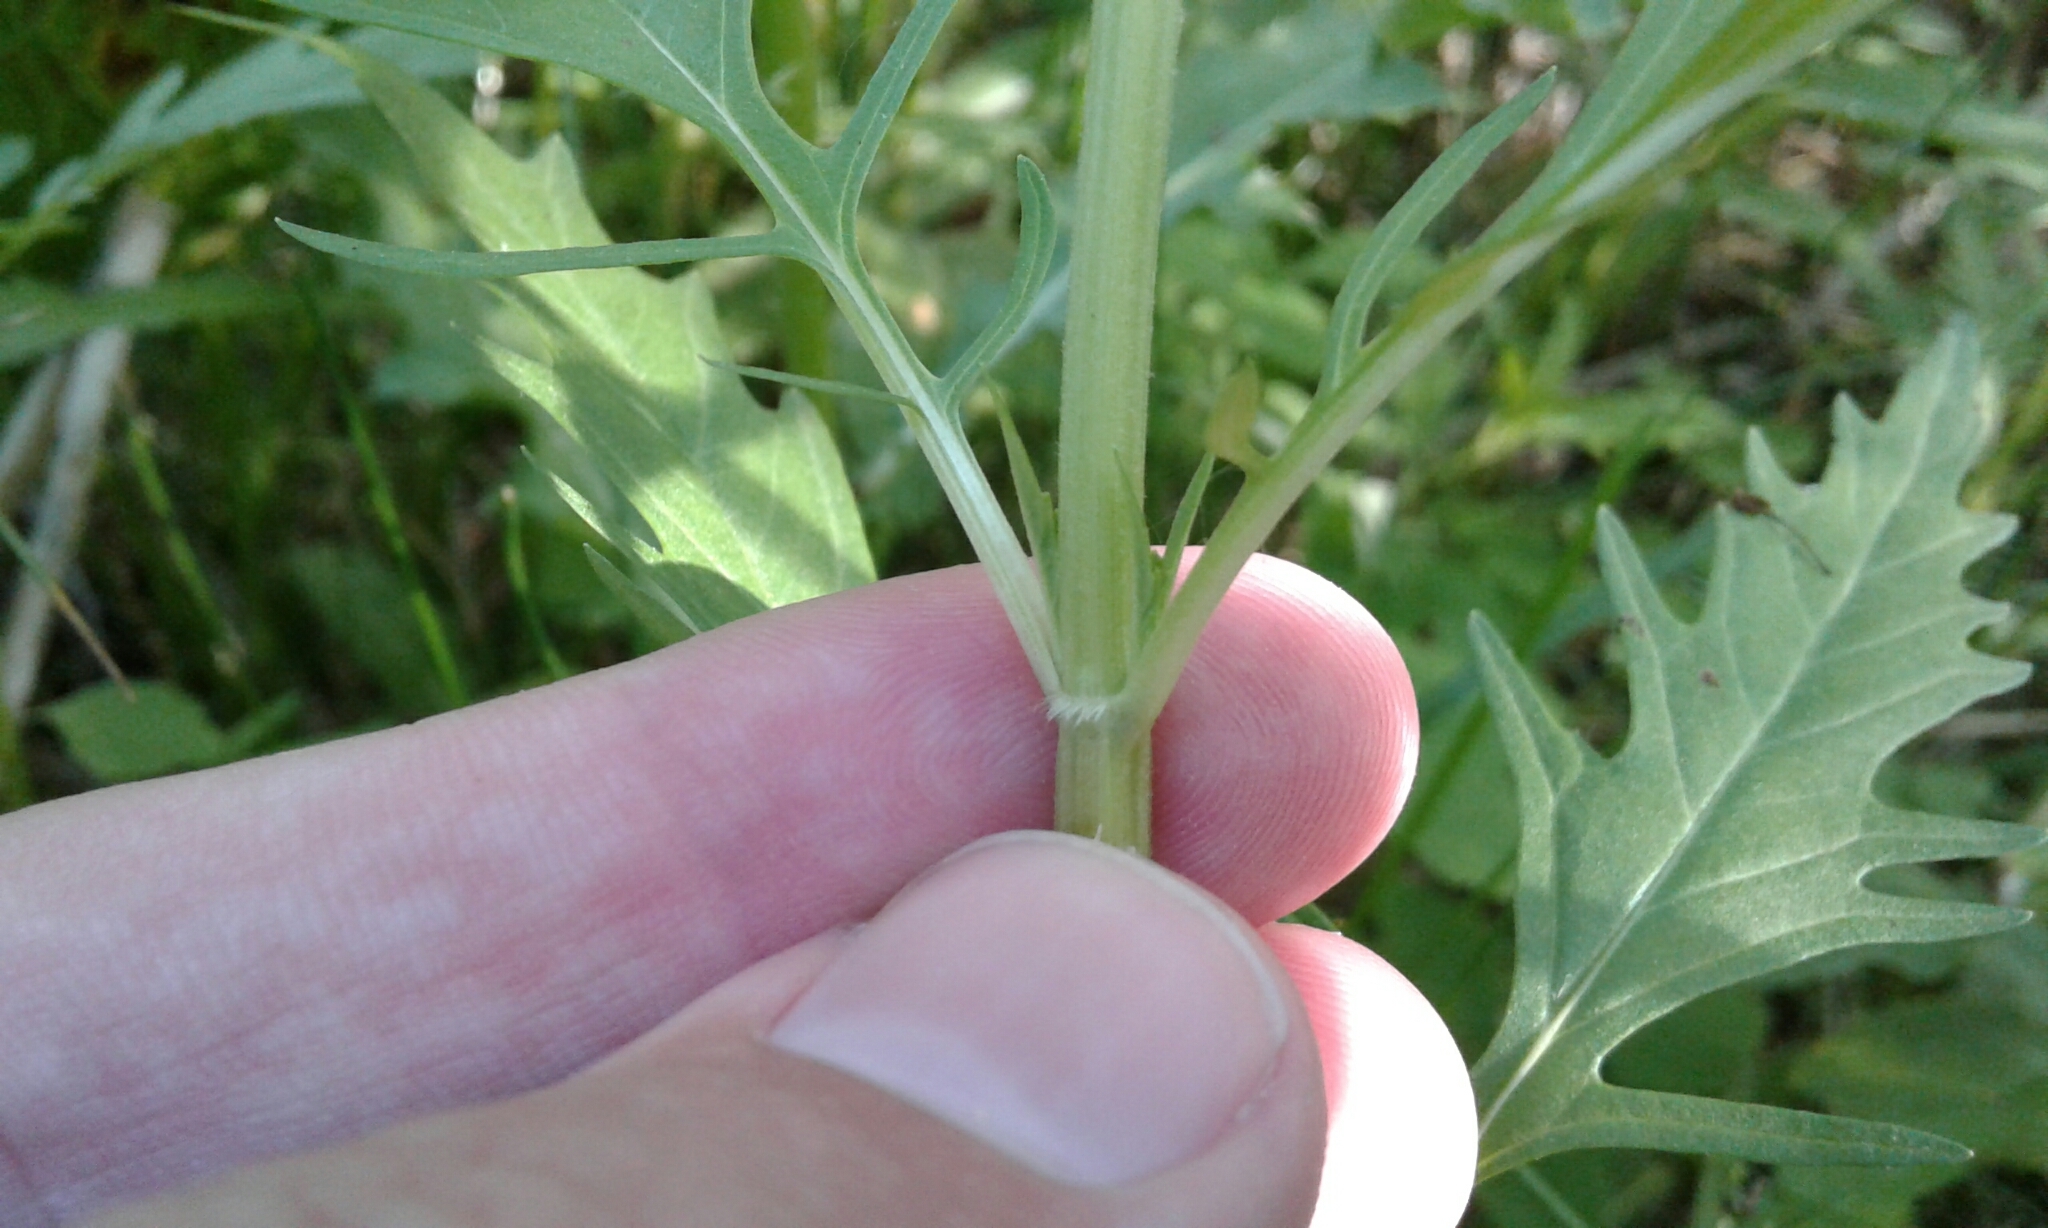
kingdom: Plantae
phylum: Tracheophyta
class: Magnoliopsida
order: Lamiales
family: Lamiaceae
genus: Lycopus
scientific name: Lycopus americanus
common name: American bugleweed
